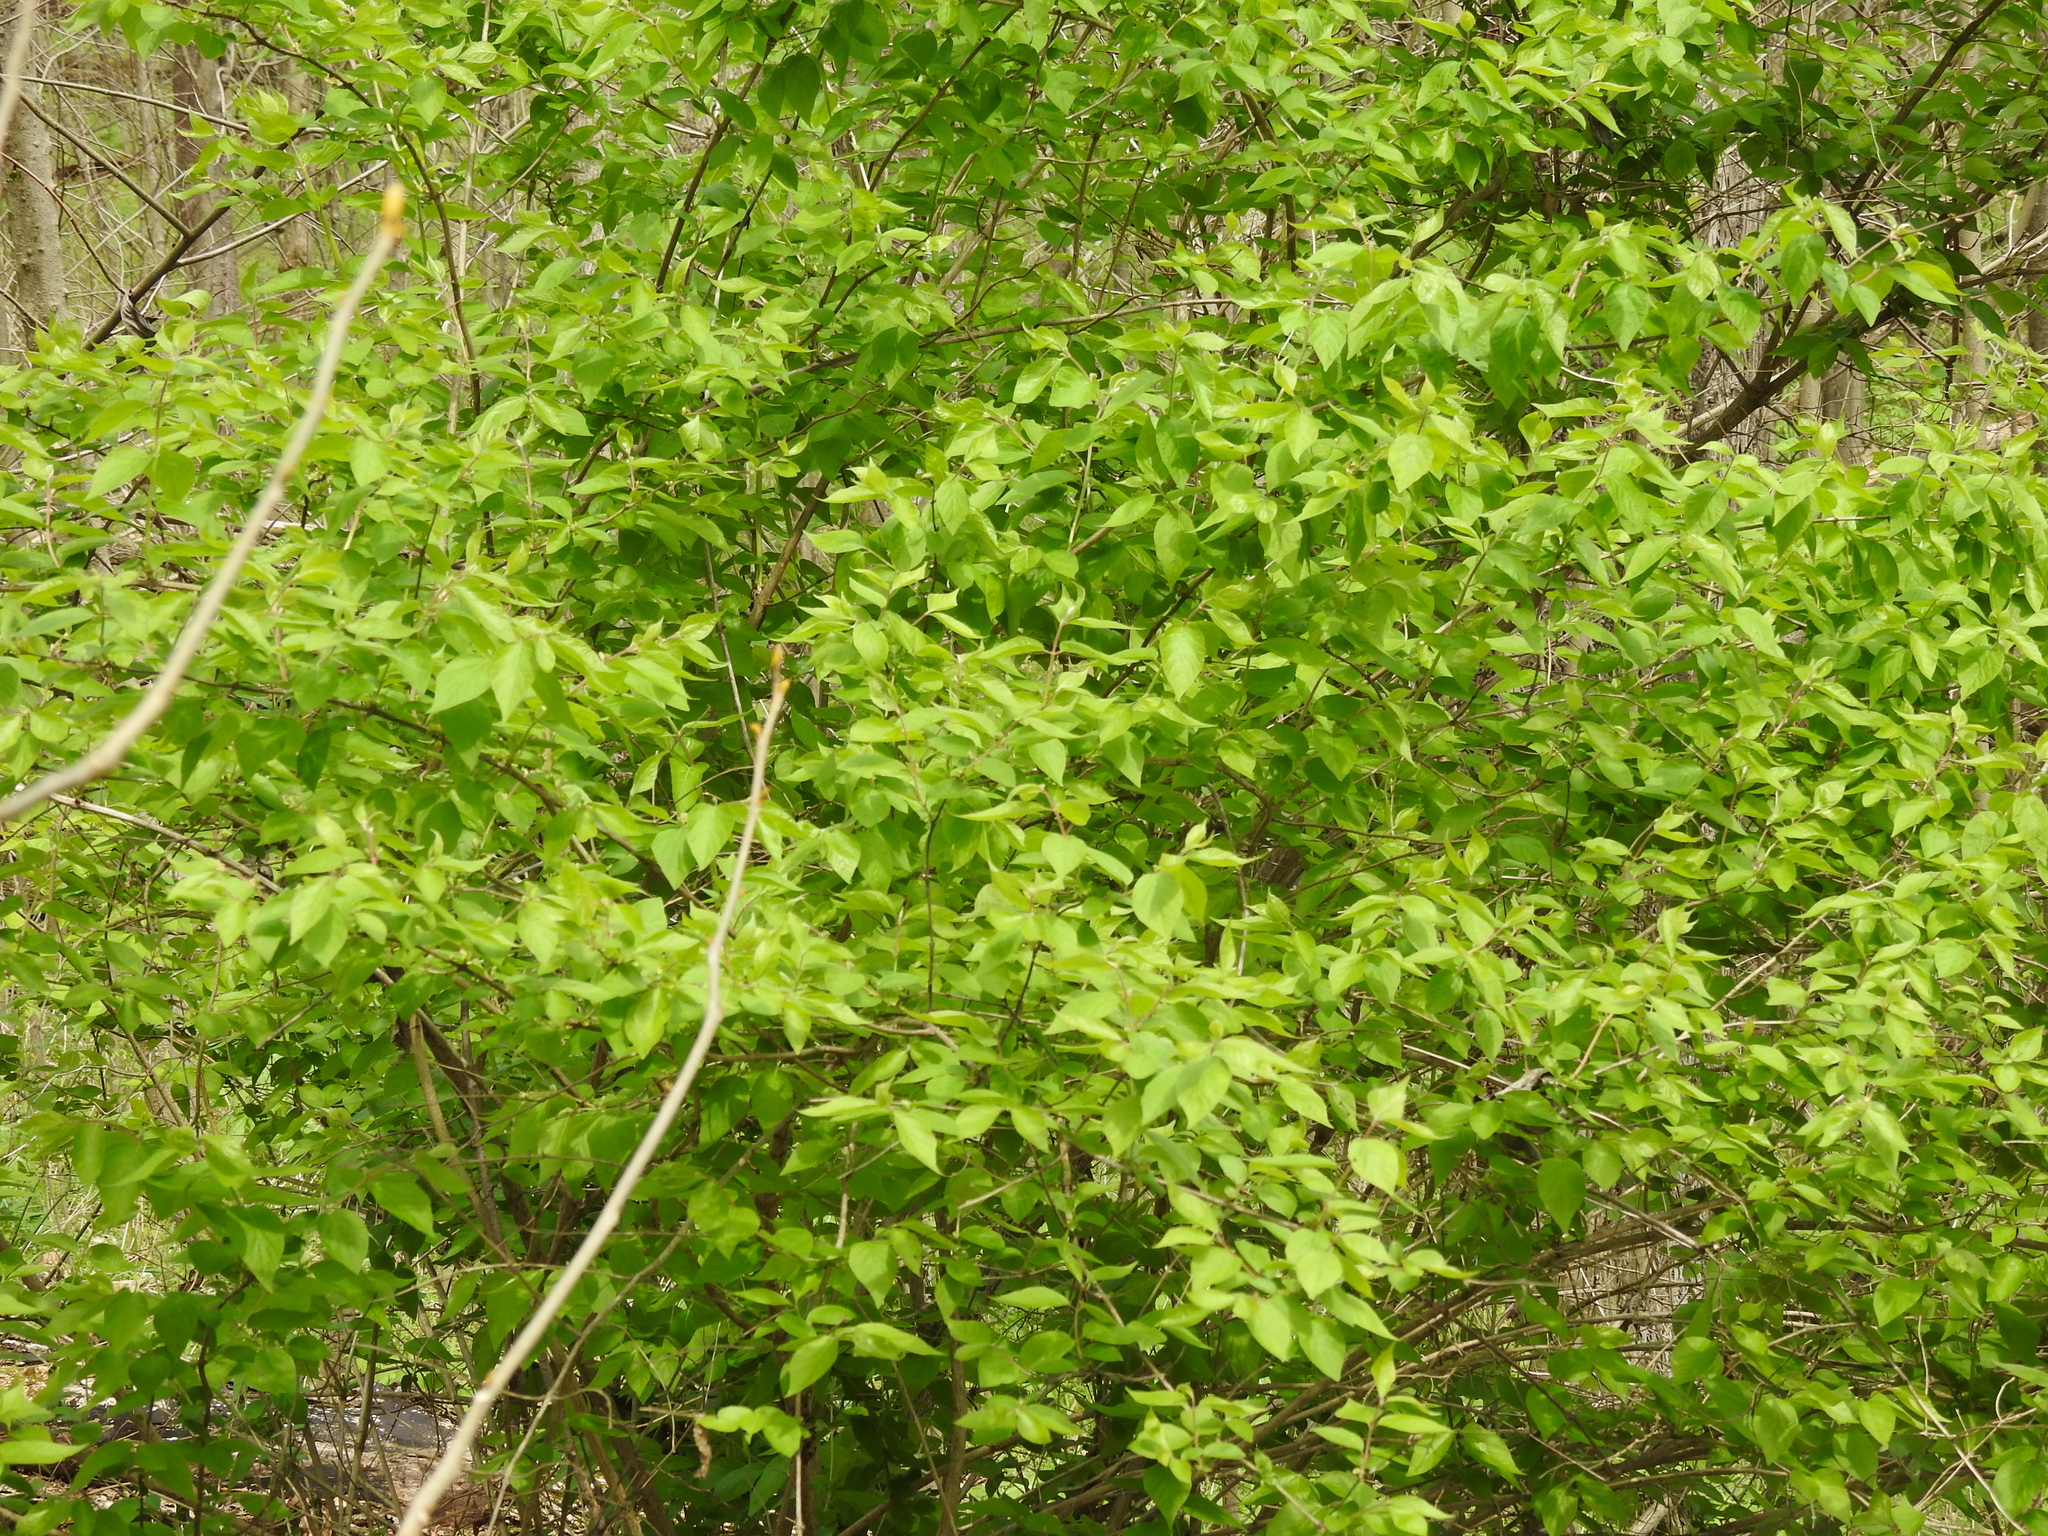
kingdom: Plantae
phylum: Tracheophyta
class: Magnoliopsida
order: Dipsacales
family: Caprifoliaceae
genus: Lonicera
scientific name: Lonicera maackii
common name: Amur honeysuckle
